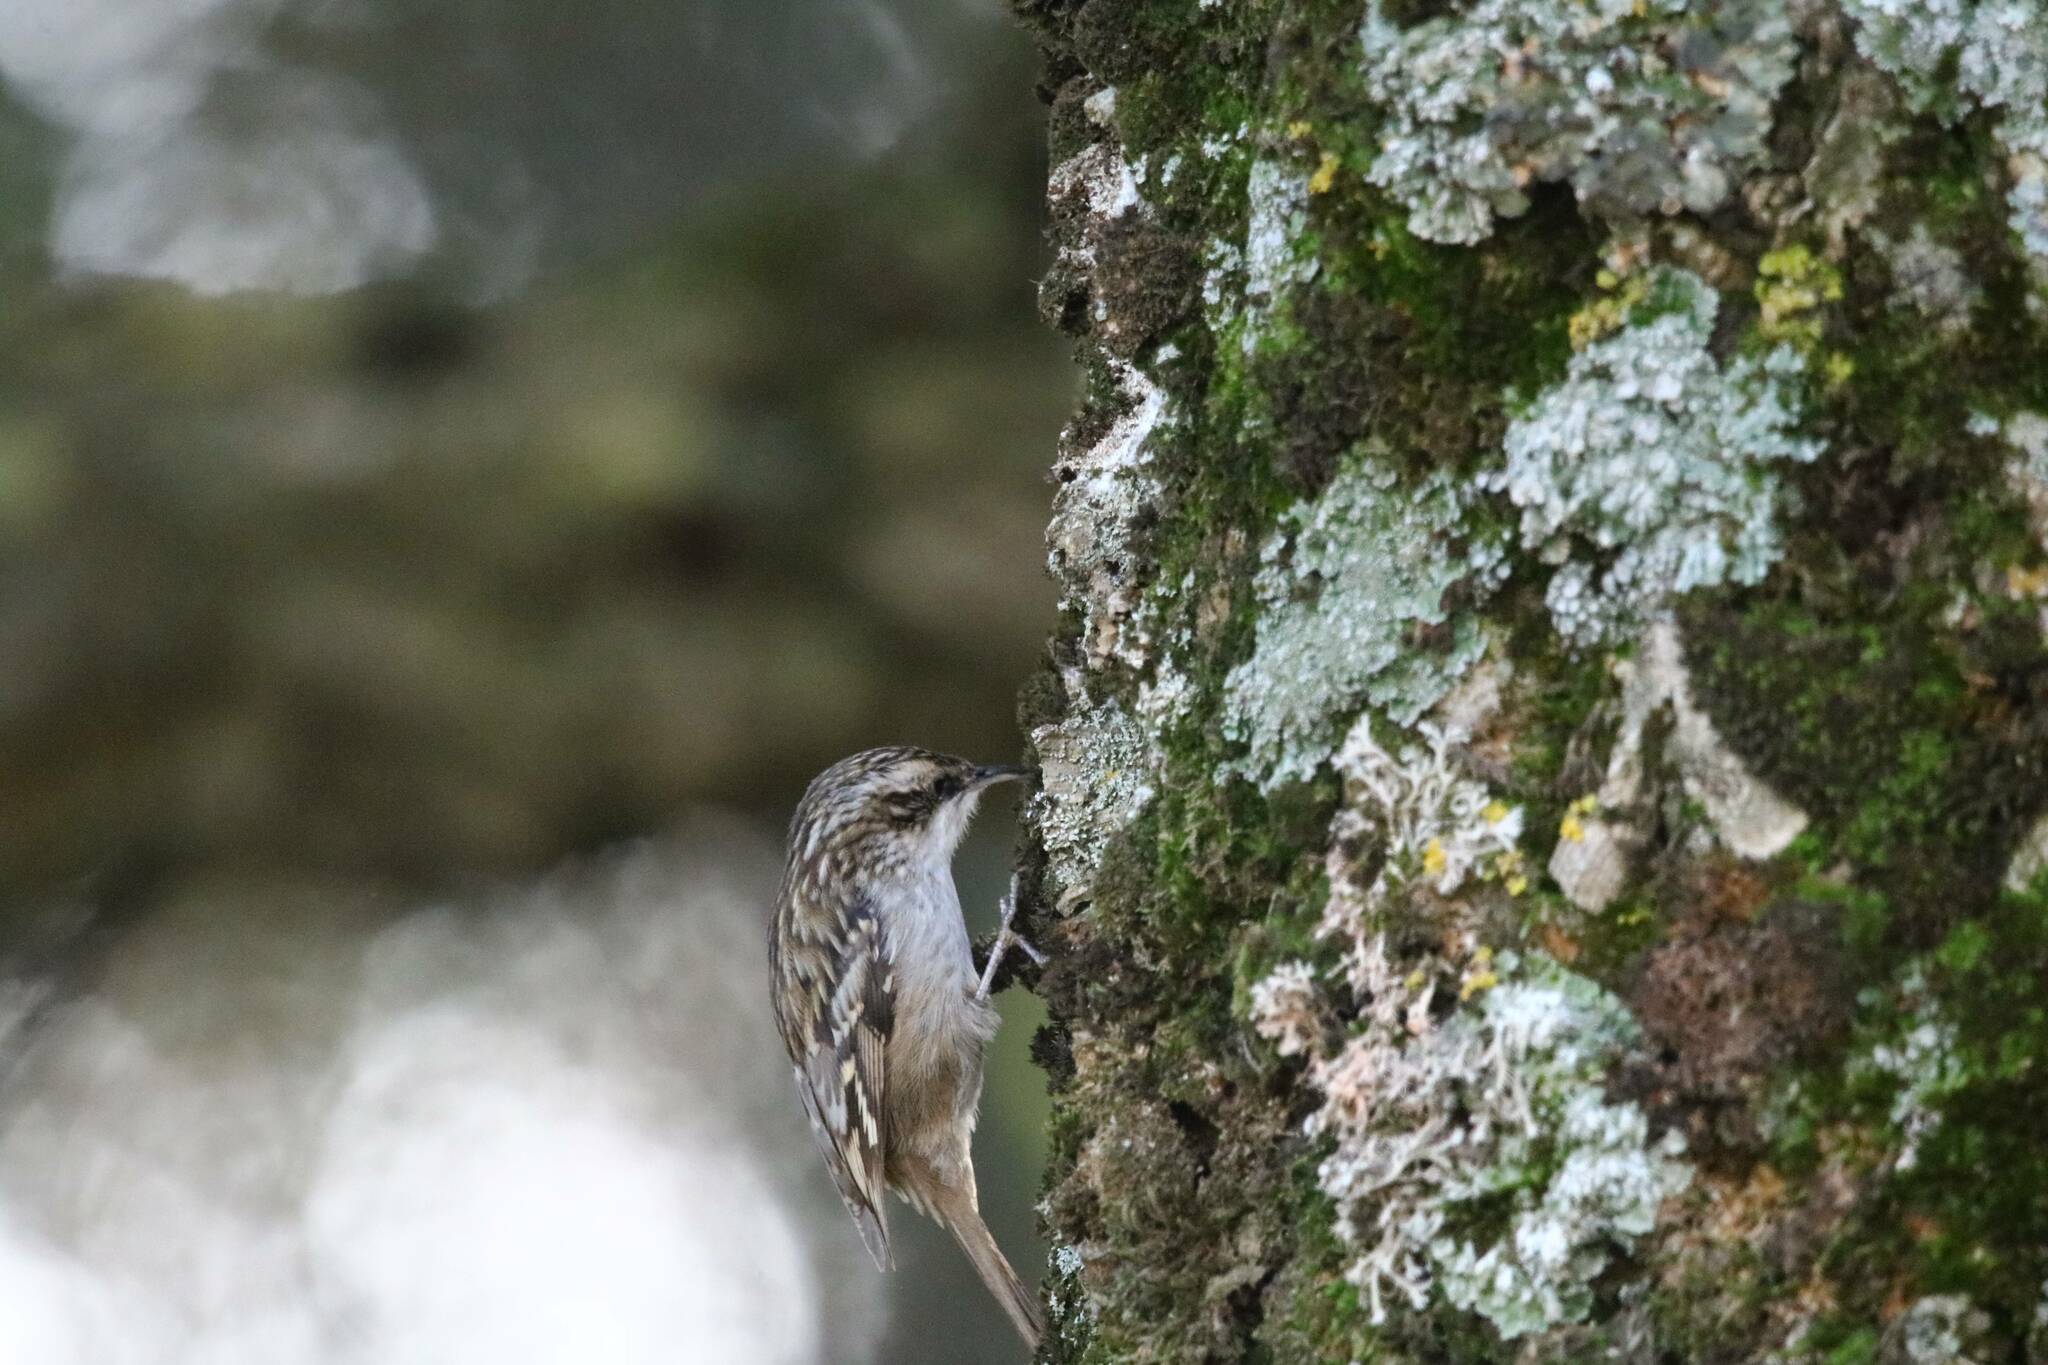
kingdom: Animalia
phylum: Chordata
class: Aves
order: Passeriformes
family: Certhiidae
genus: Certhia
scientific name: Certhia brachydactyla
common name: Short-toed treecreeper
